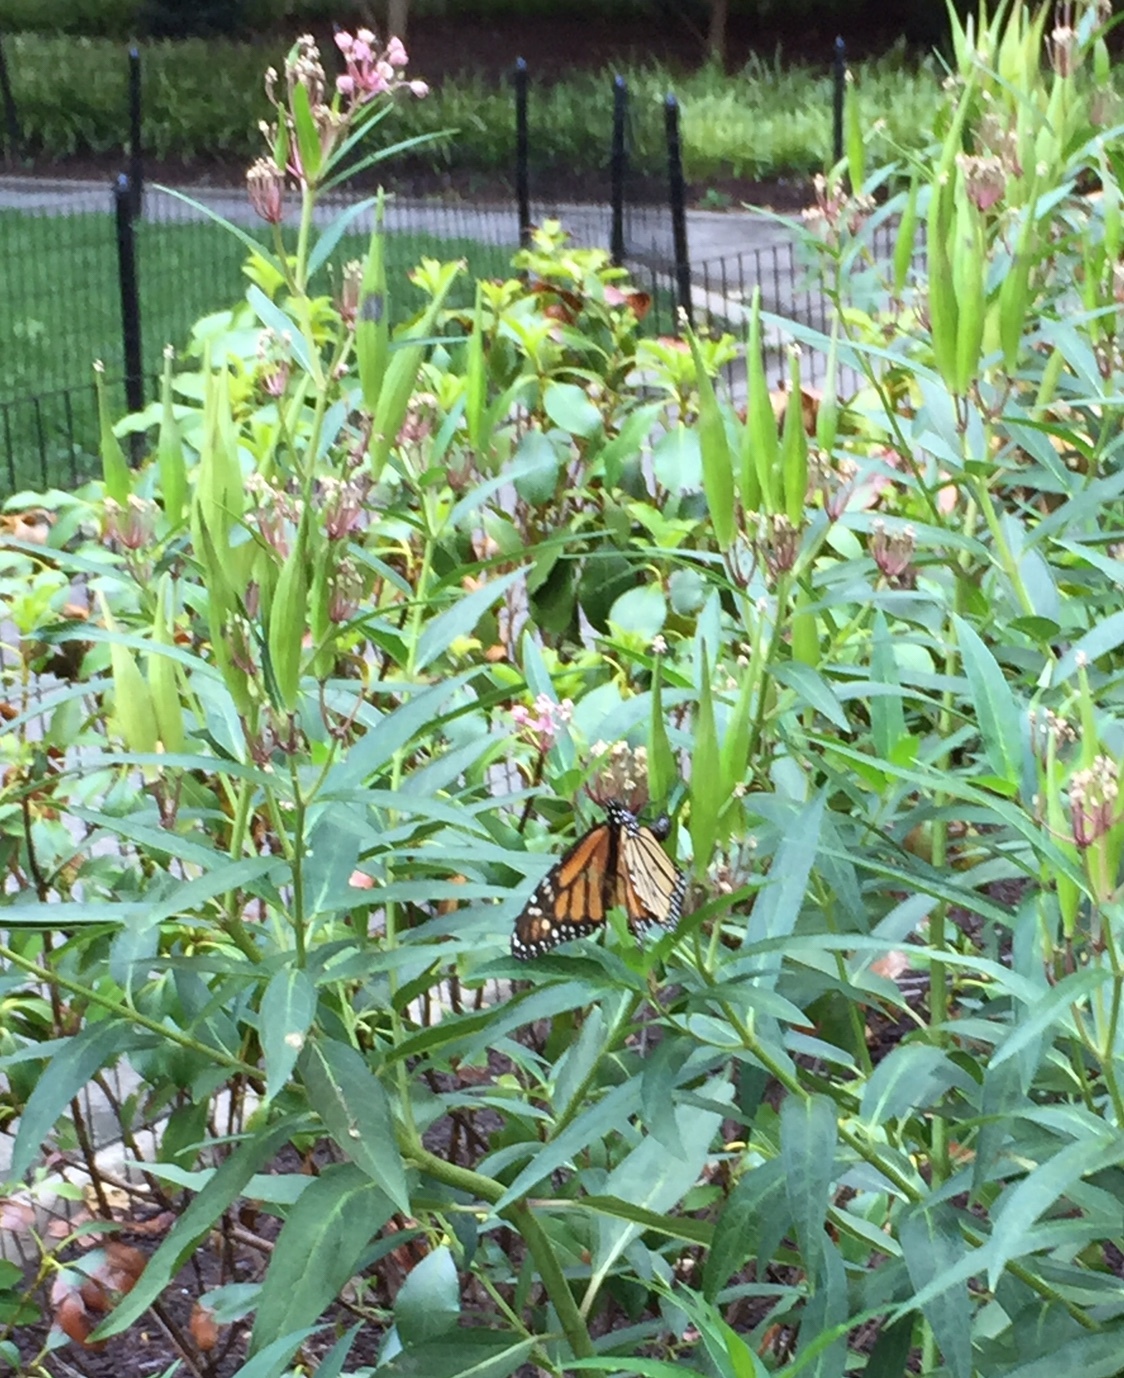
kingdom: Animalia
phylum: Arthropoda
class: Insecta
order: Lepidoptera
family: Nymphalidae
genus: Danaus
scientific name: Danaus plexippus
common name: Monarch
